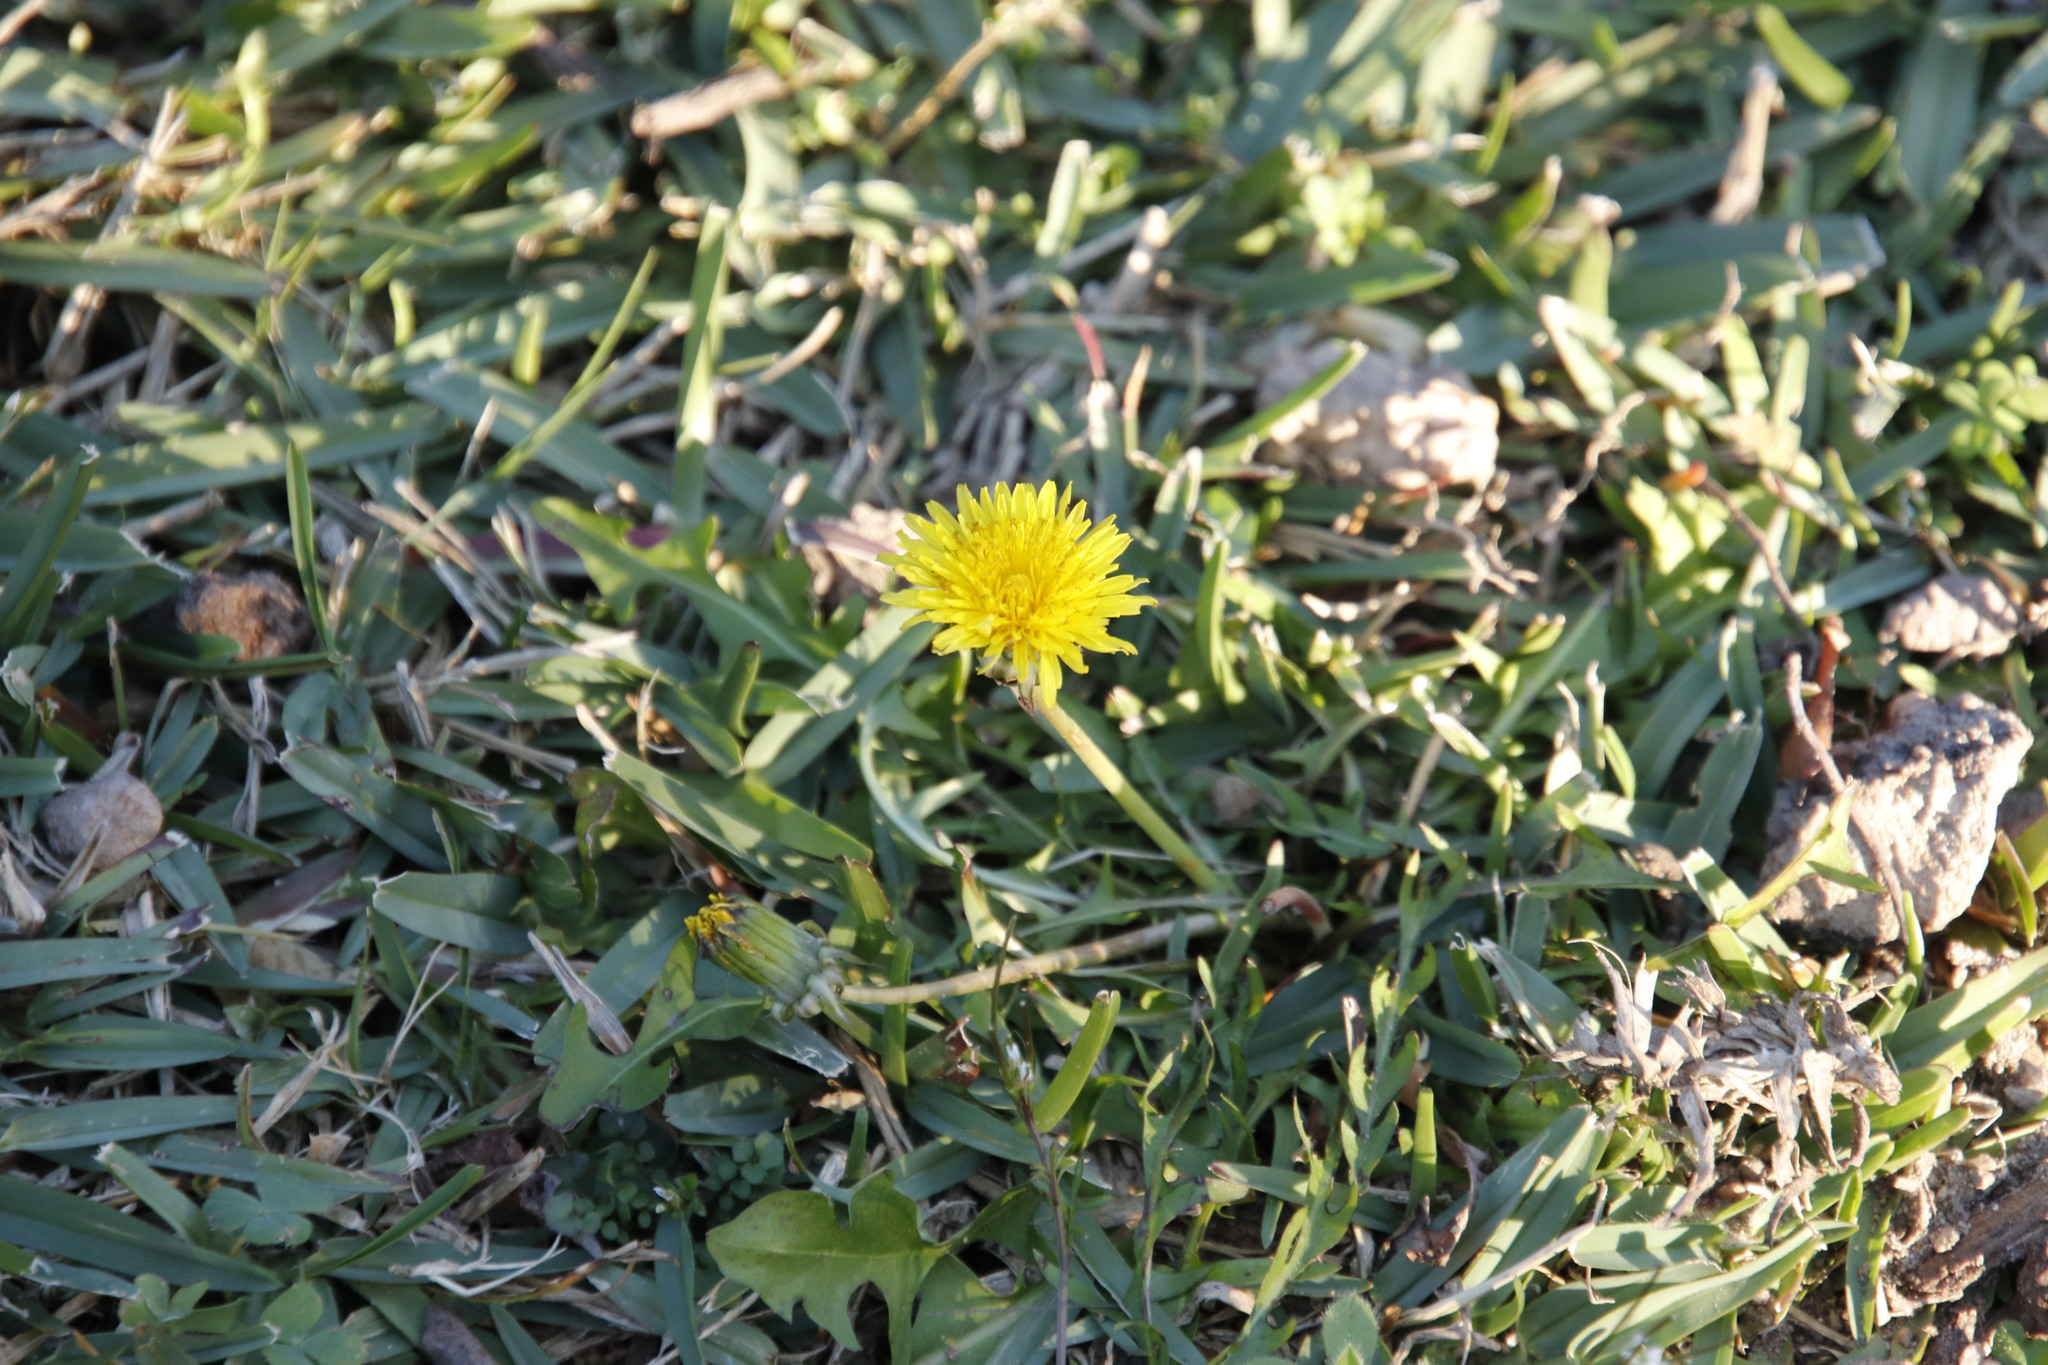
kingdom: Plantae
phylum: Tracheophyta
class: Magnoliopsida
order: Asterales
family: Asteraceae
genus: Taraxacum
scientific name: Taraxacum officinale
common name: Common dandelion
